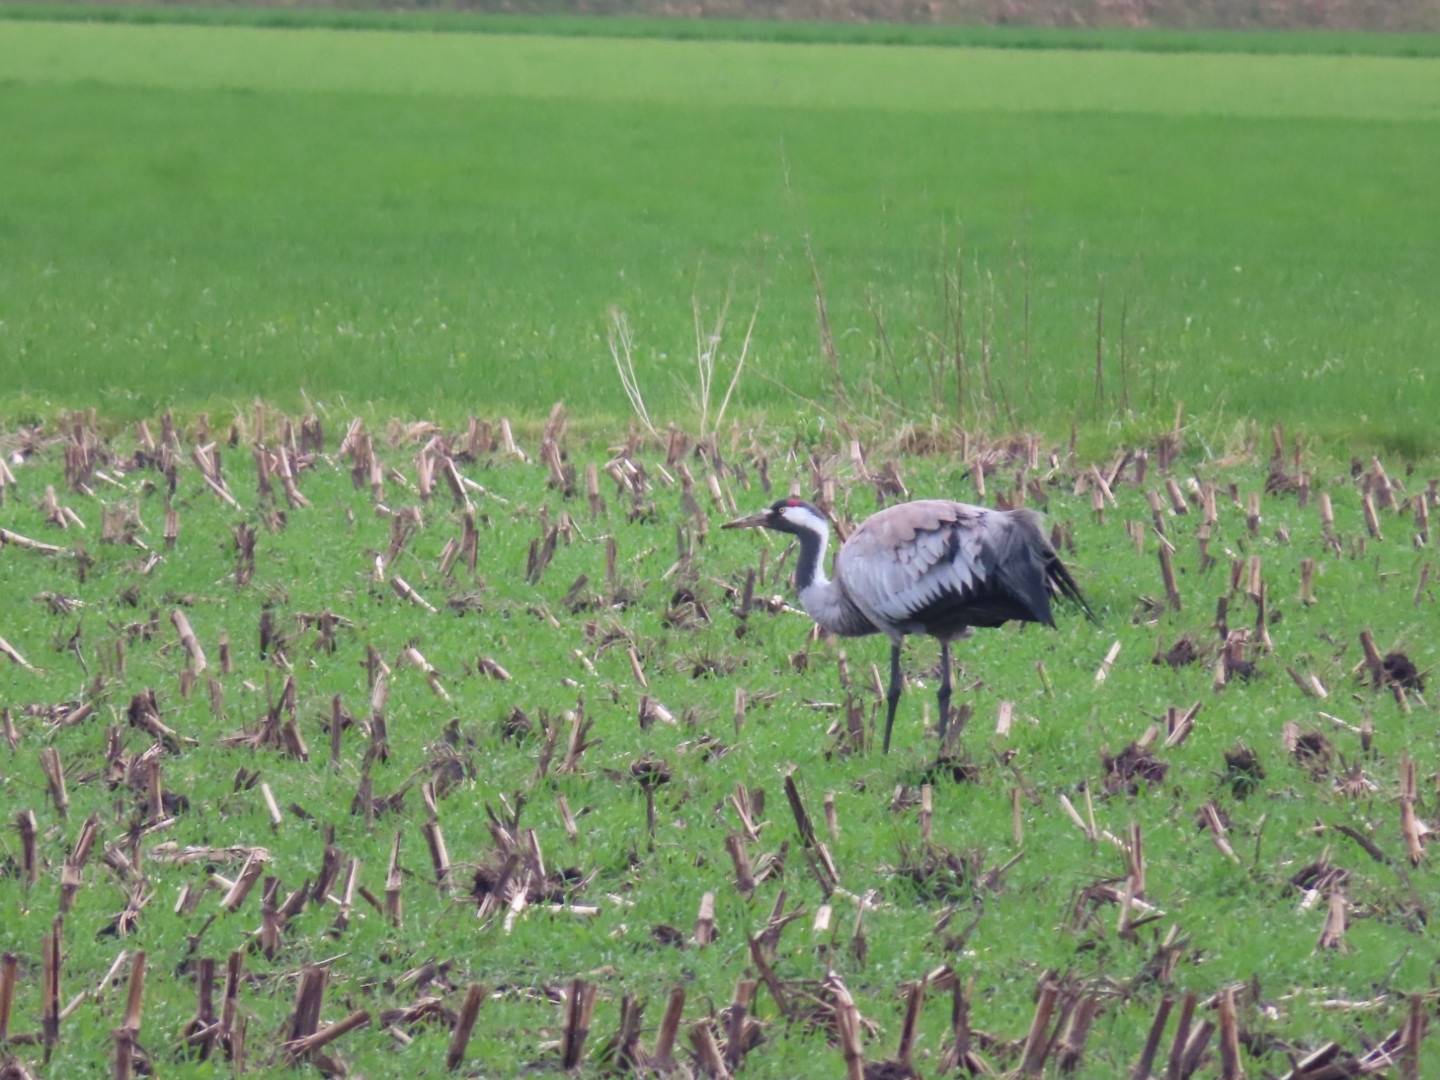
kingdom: Animalia
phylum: Chordata
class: Aves
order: Gruiformes
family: Gruidae
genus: Grus
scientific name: Grus grus
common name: Common crane
